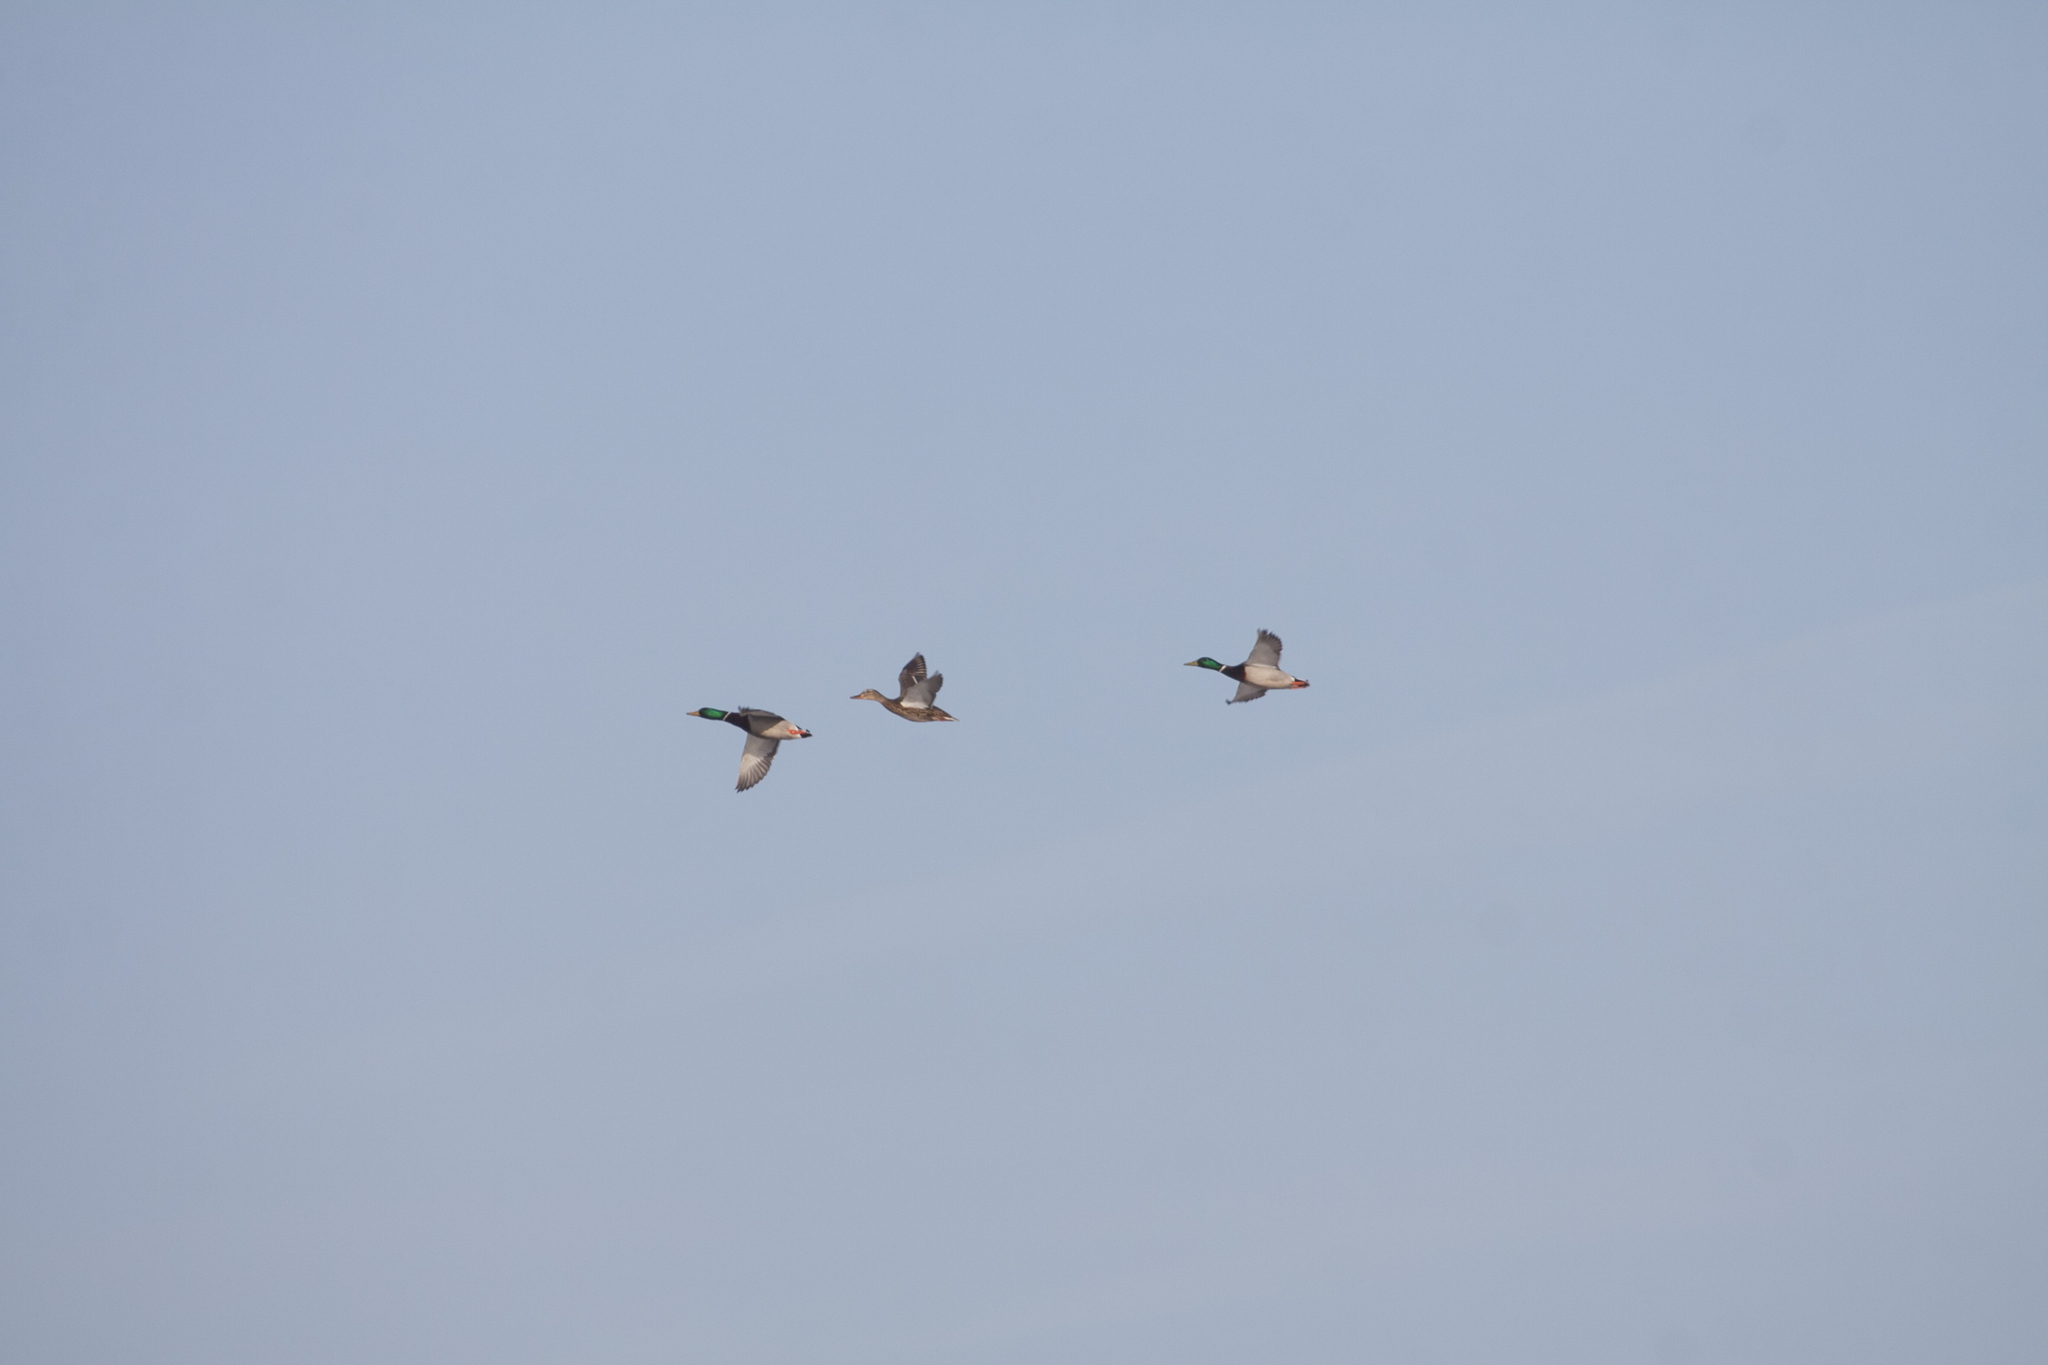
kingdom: Animalia
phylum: Chordata
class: Aves
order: Anseriformes
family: Anatidae
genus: Anas
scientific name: Anas platyrhynchos
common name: Mallard
